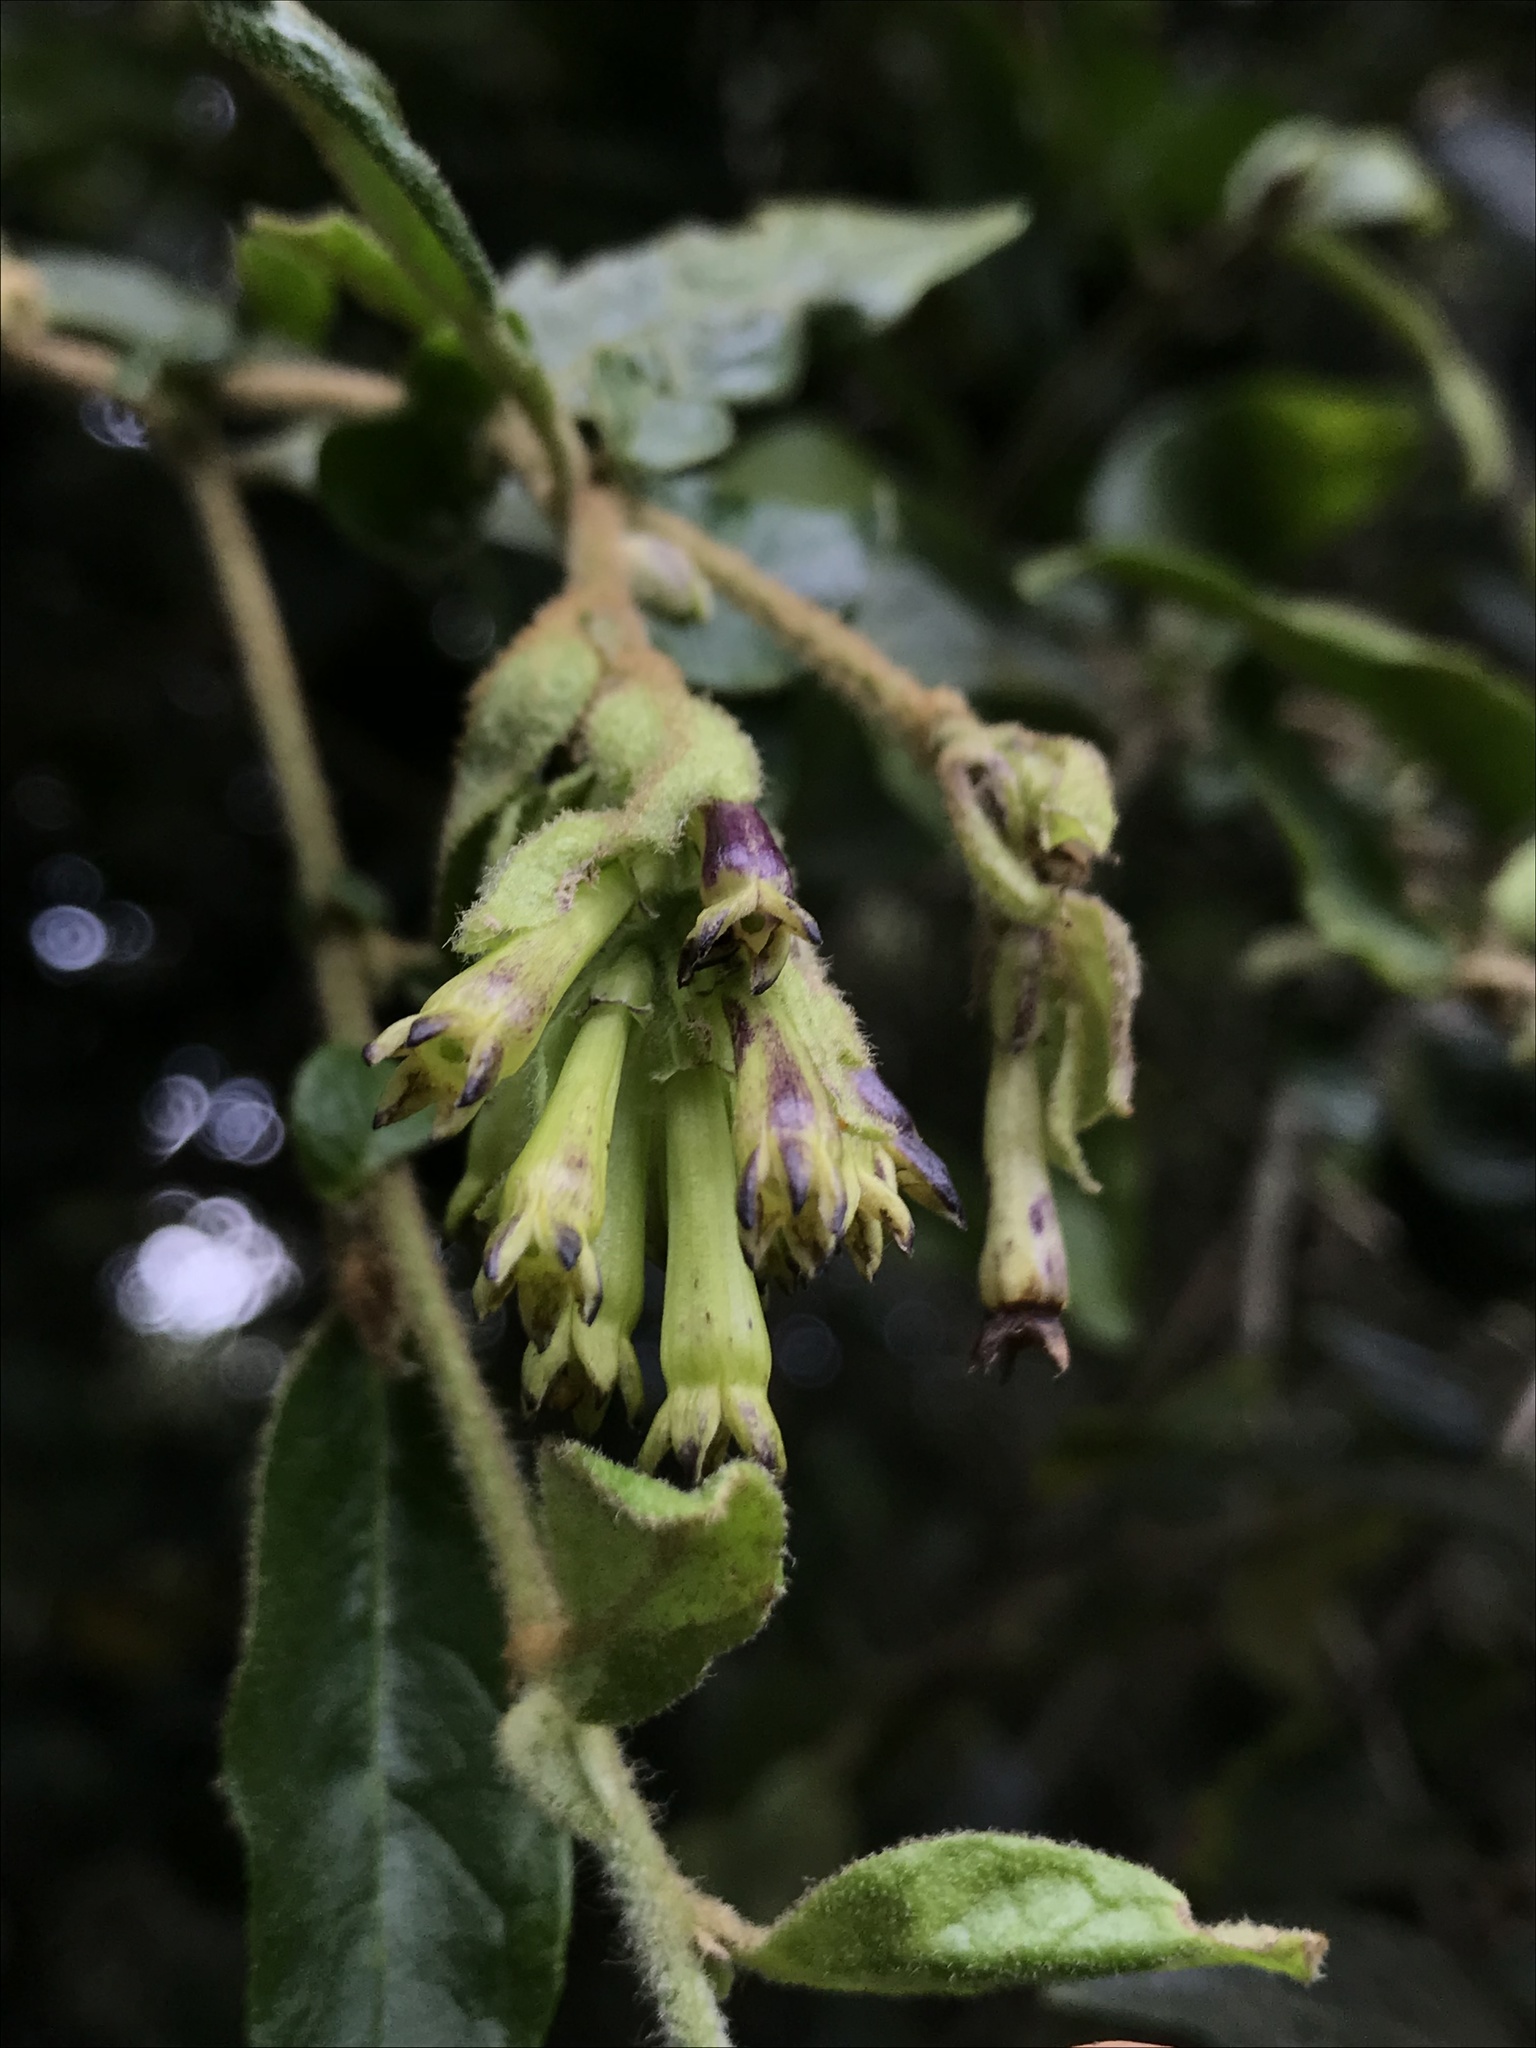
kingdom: Plantae
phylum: Tracheophyta
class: Magnoliopsida
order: Solanales
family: Solanaceae
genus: Cestrum
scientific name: Cestrum tomentosum
